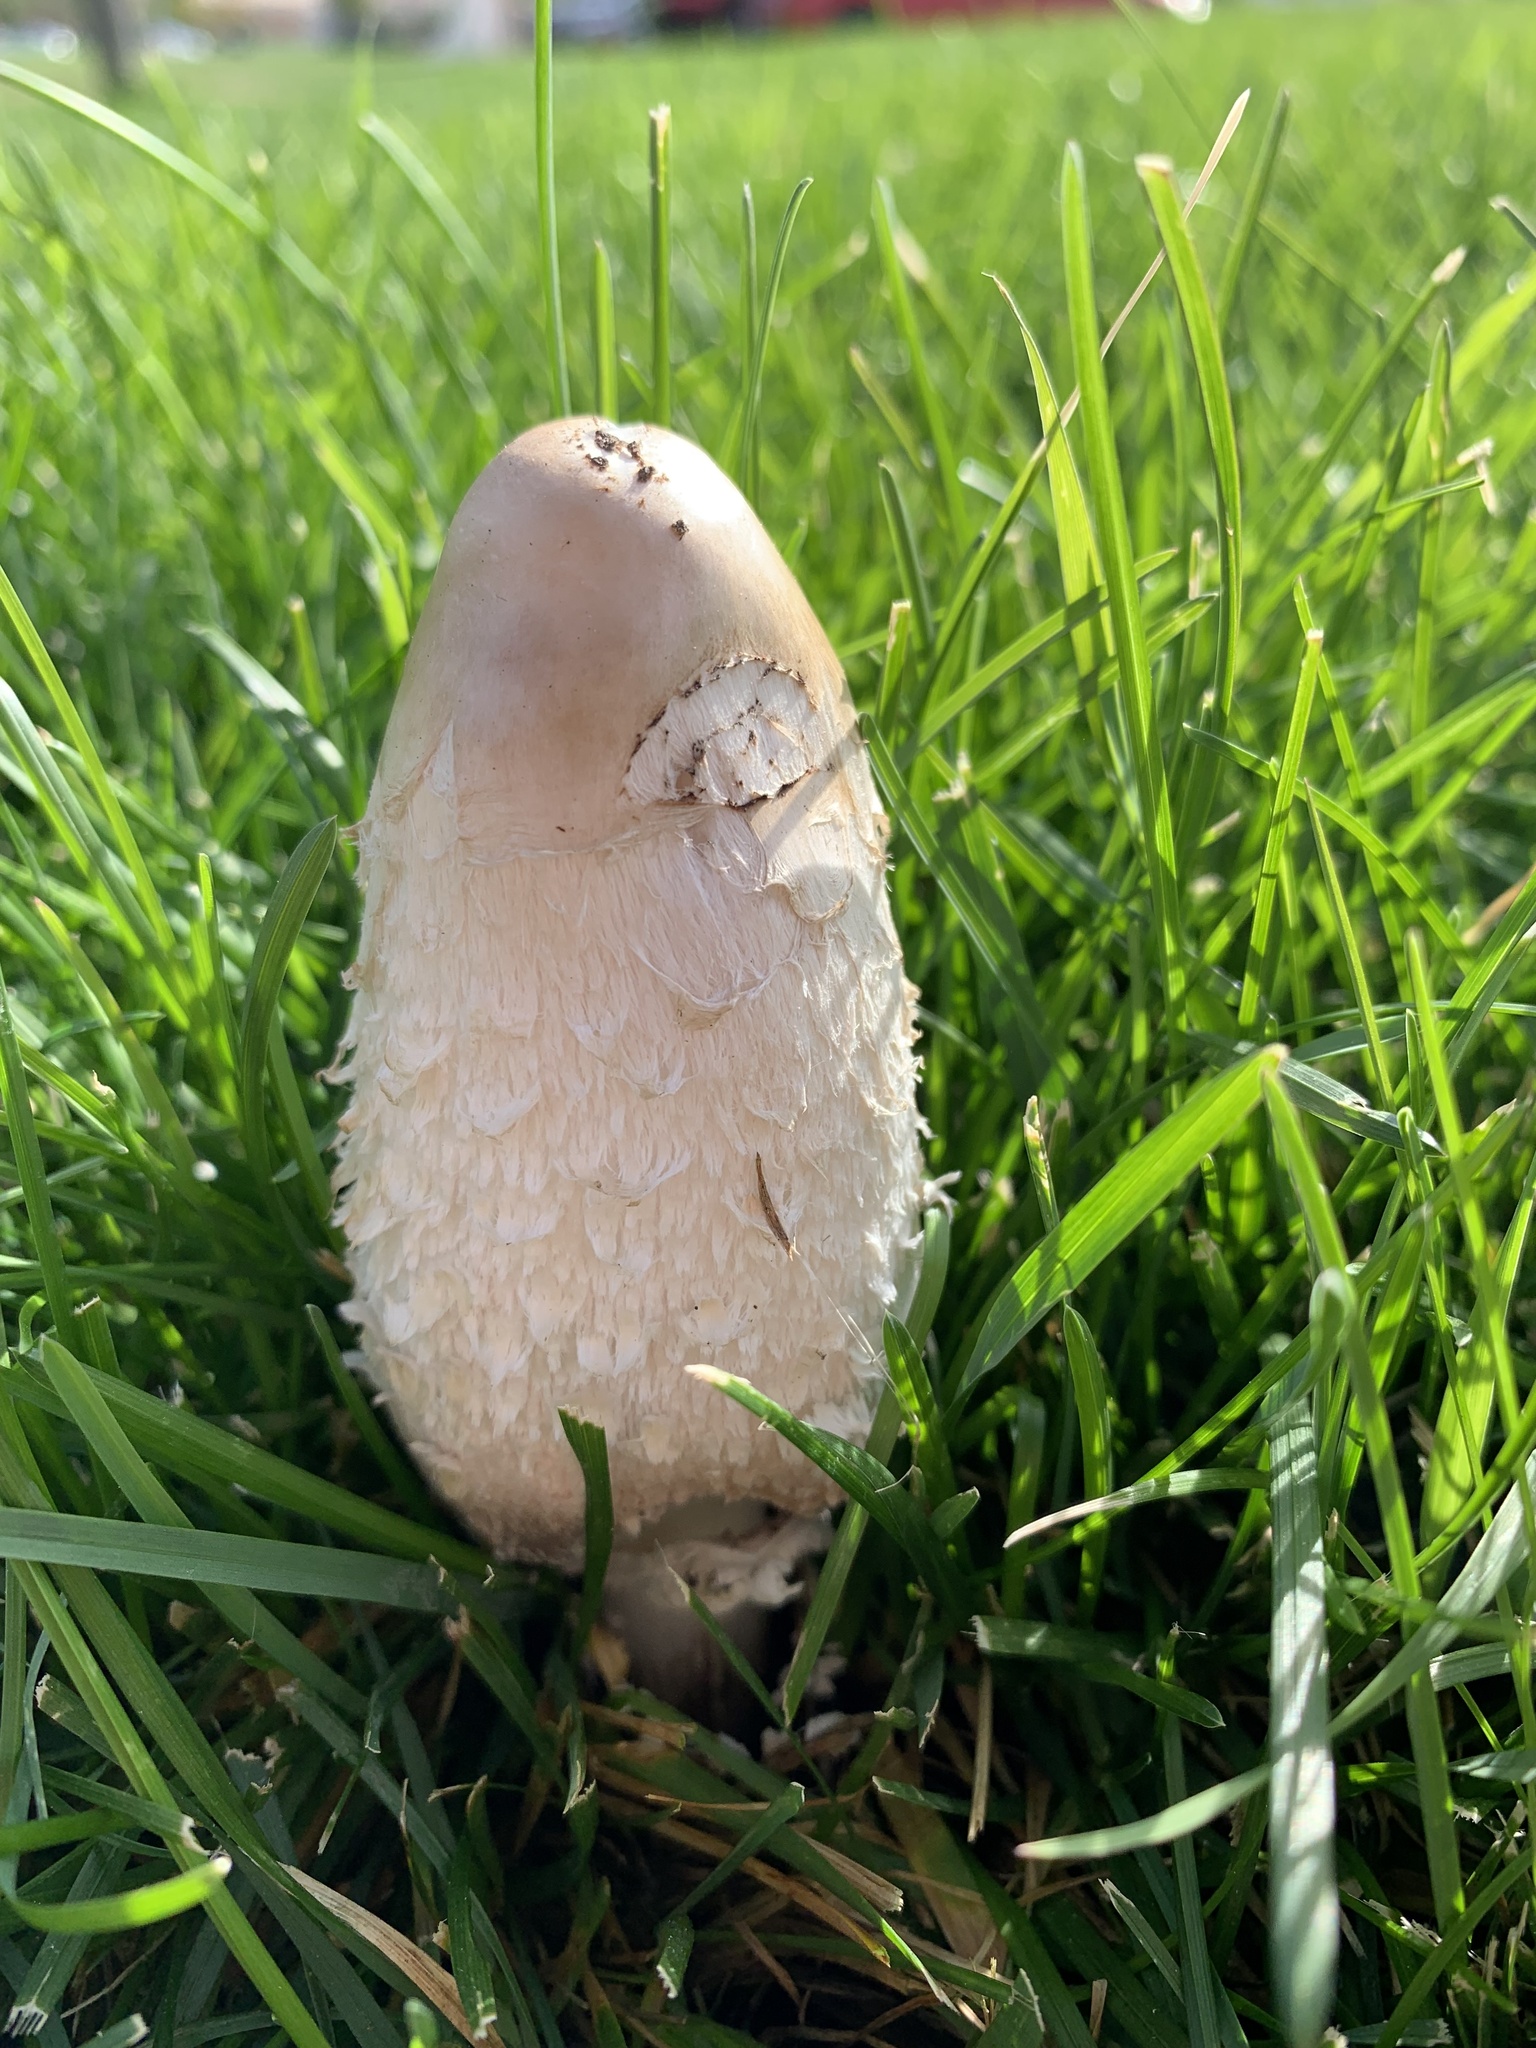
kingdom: Fungi
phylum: Basidiomycota
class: Agaricomycetes
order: Agaricales
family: Agaricaceae
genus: Coprinus
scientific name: Coprinus comatus
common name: Lawyer's wig
